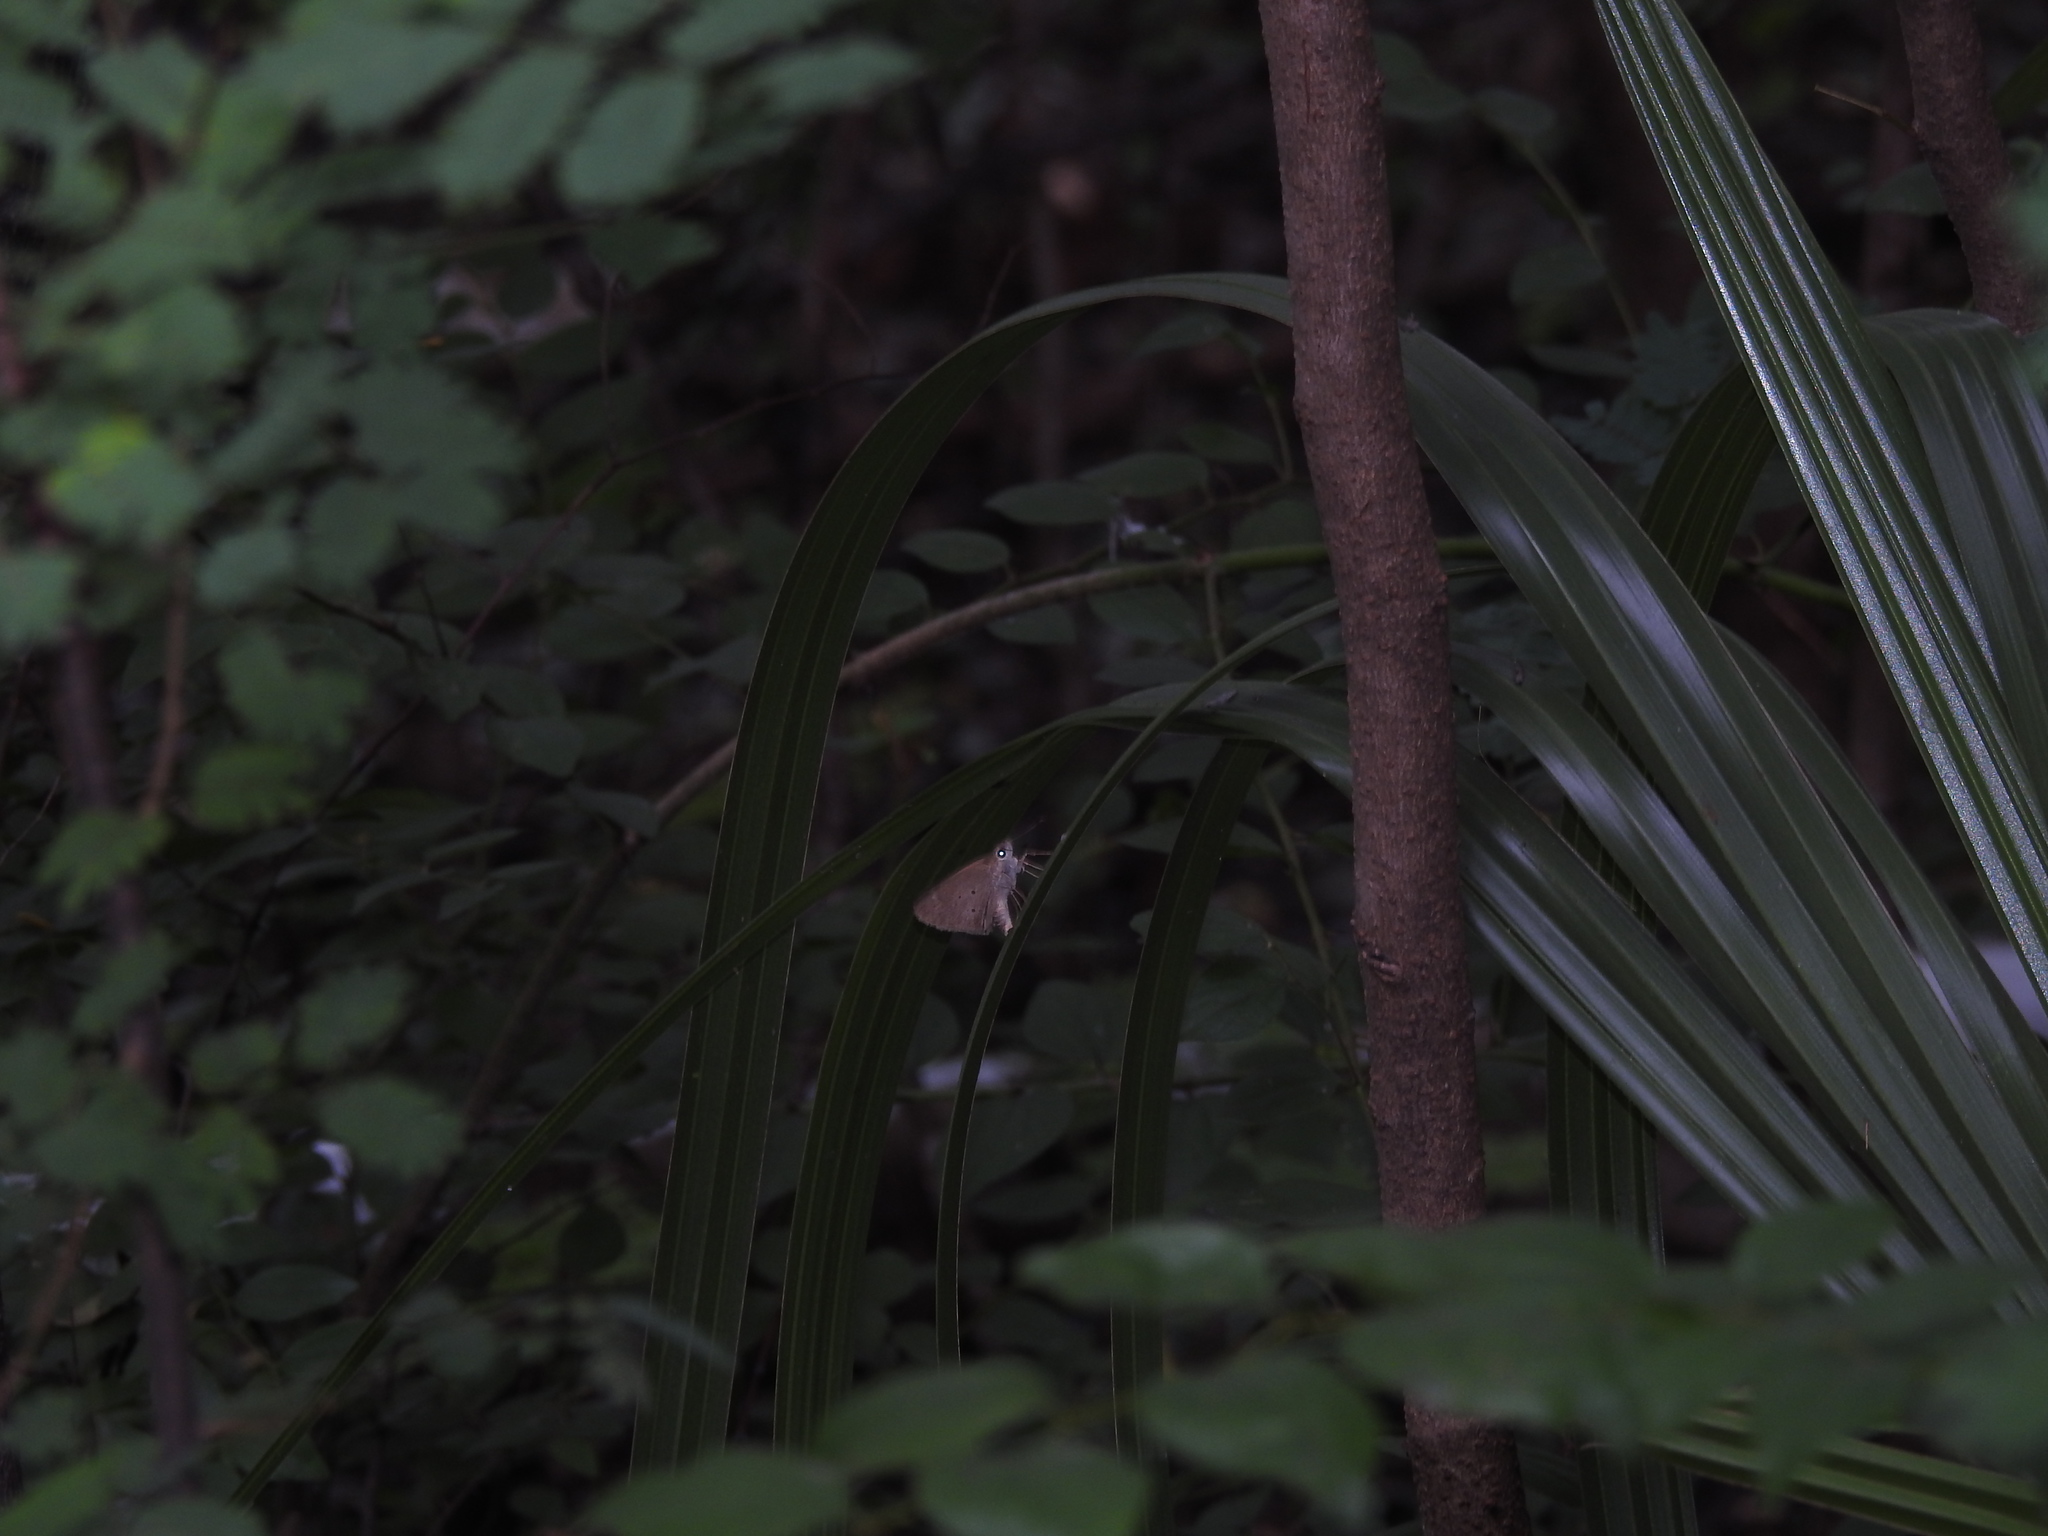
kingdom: Animalia
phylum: Arthropoda
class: Insecta
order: Lepidoptera
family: Hesperiidae
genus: Suastus
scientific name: Suastus gremius
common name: Indian palm bob
